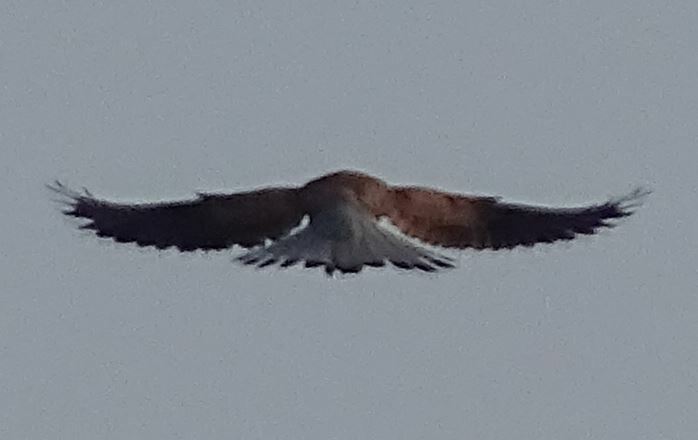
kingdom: Animalia
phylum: Chordata
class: Aves
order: Falconiformes
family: Falconidae
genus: Falco
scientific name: Falco tinnunculus
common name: Common kestrel
